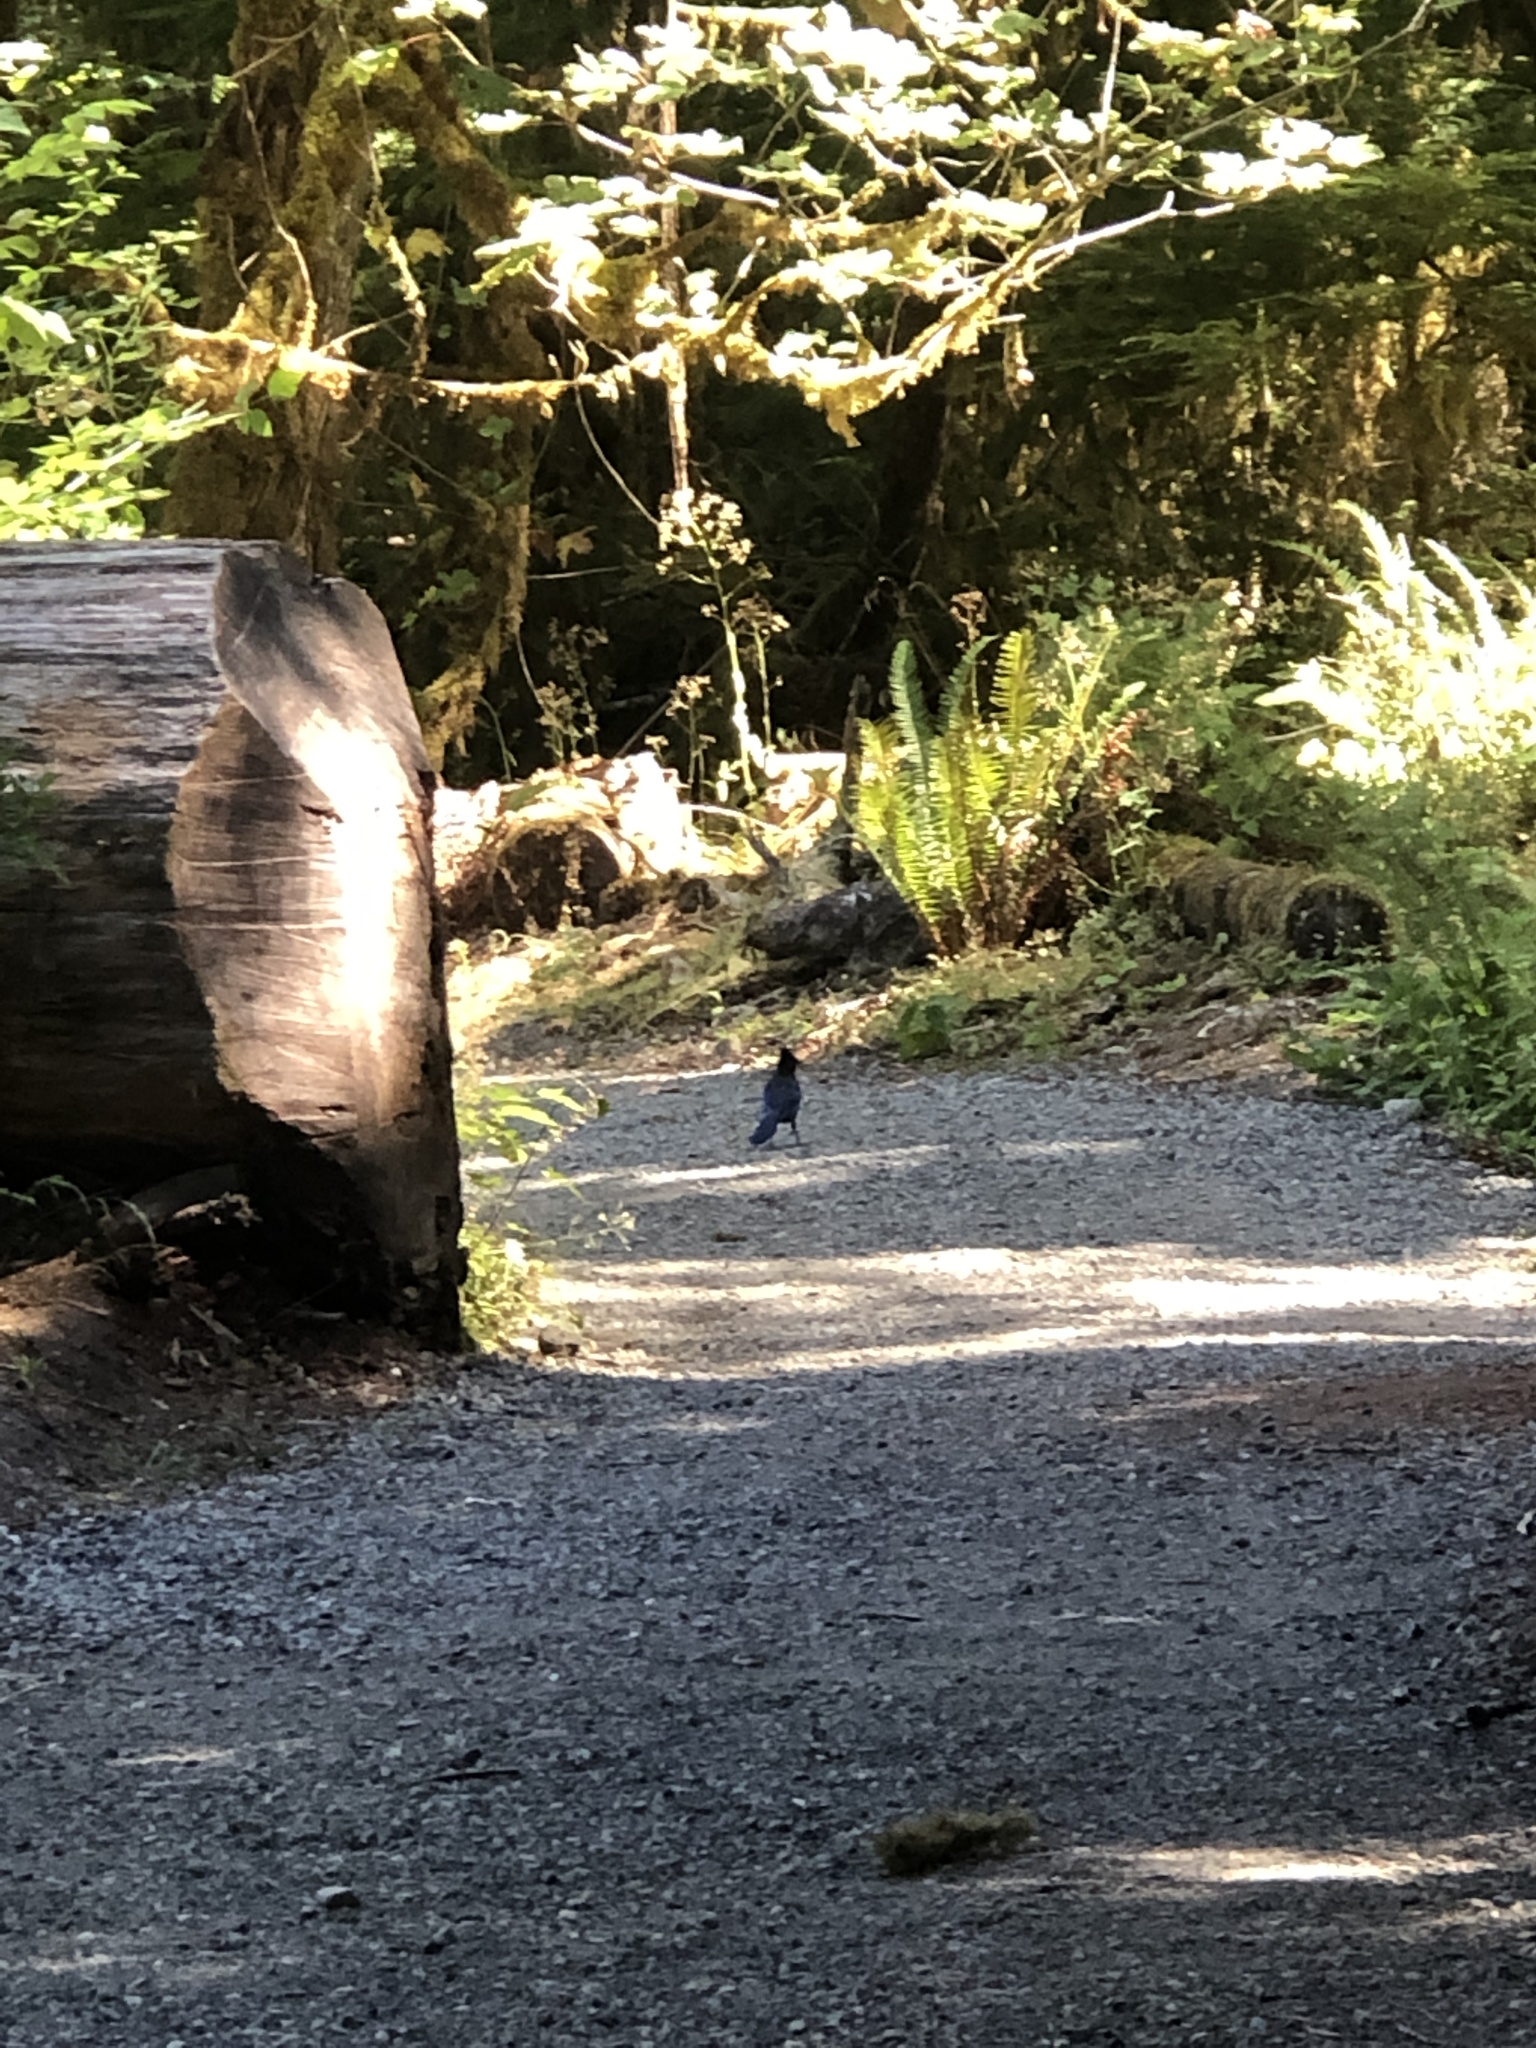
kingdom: Animalia
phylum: Chordata
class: Aves
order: Passeriformes
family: Corvidae
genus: Cyanocitta
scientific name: Cyanocitta stelleri
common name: Steller's jay
